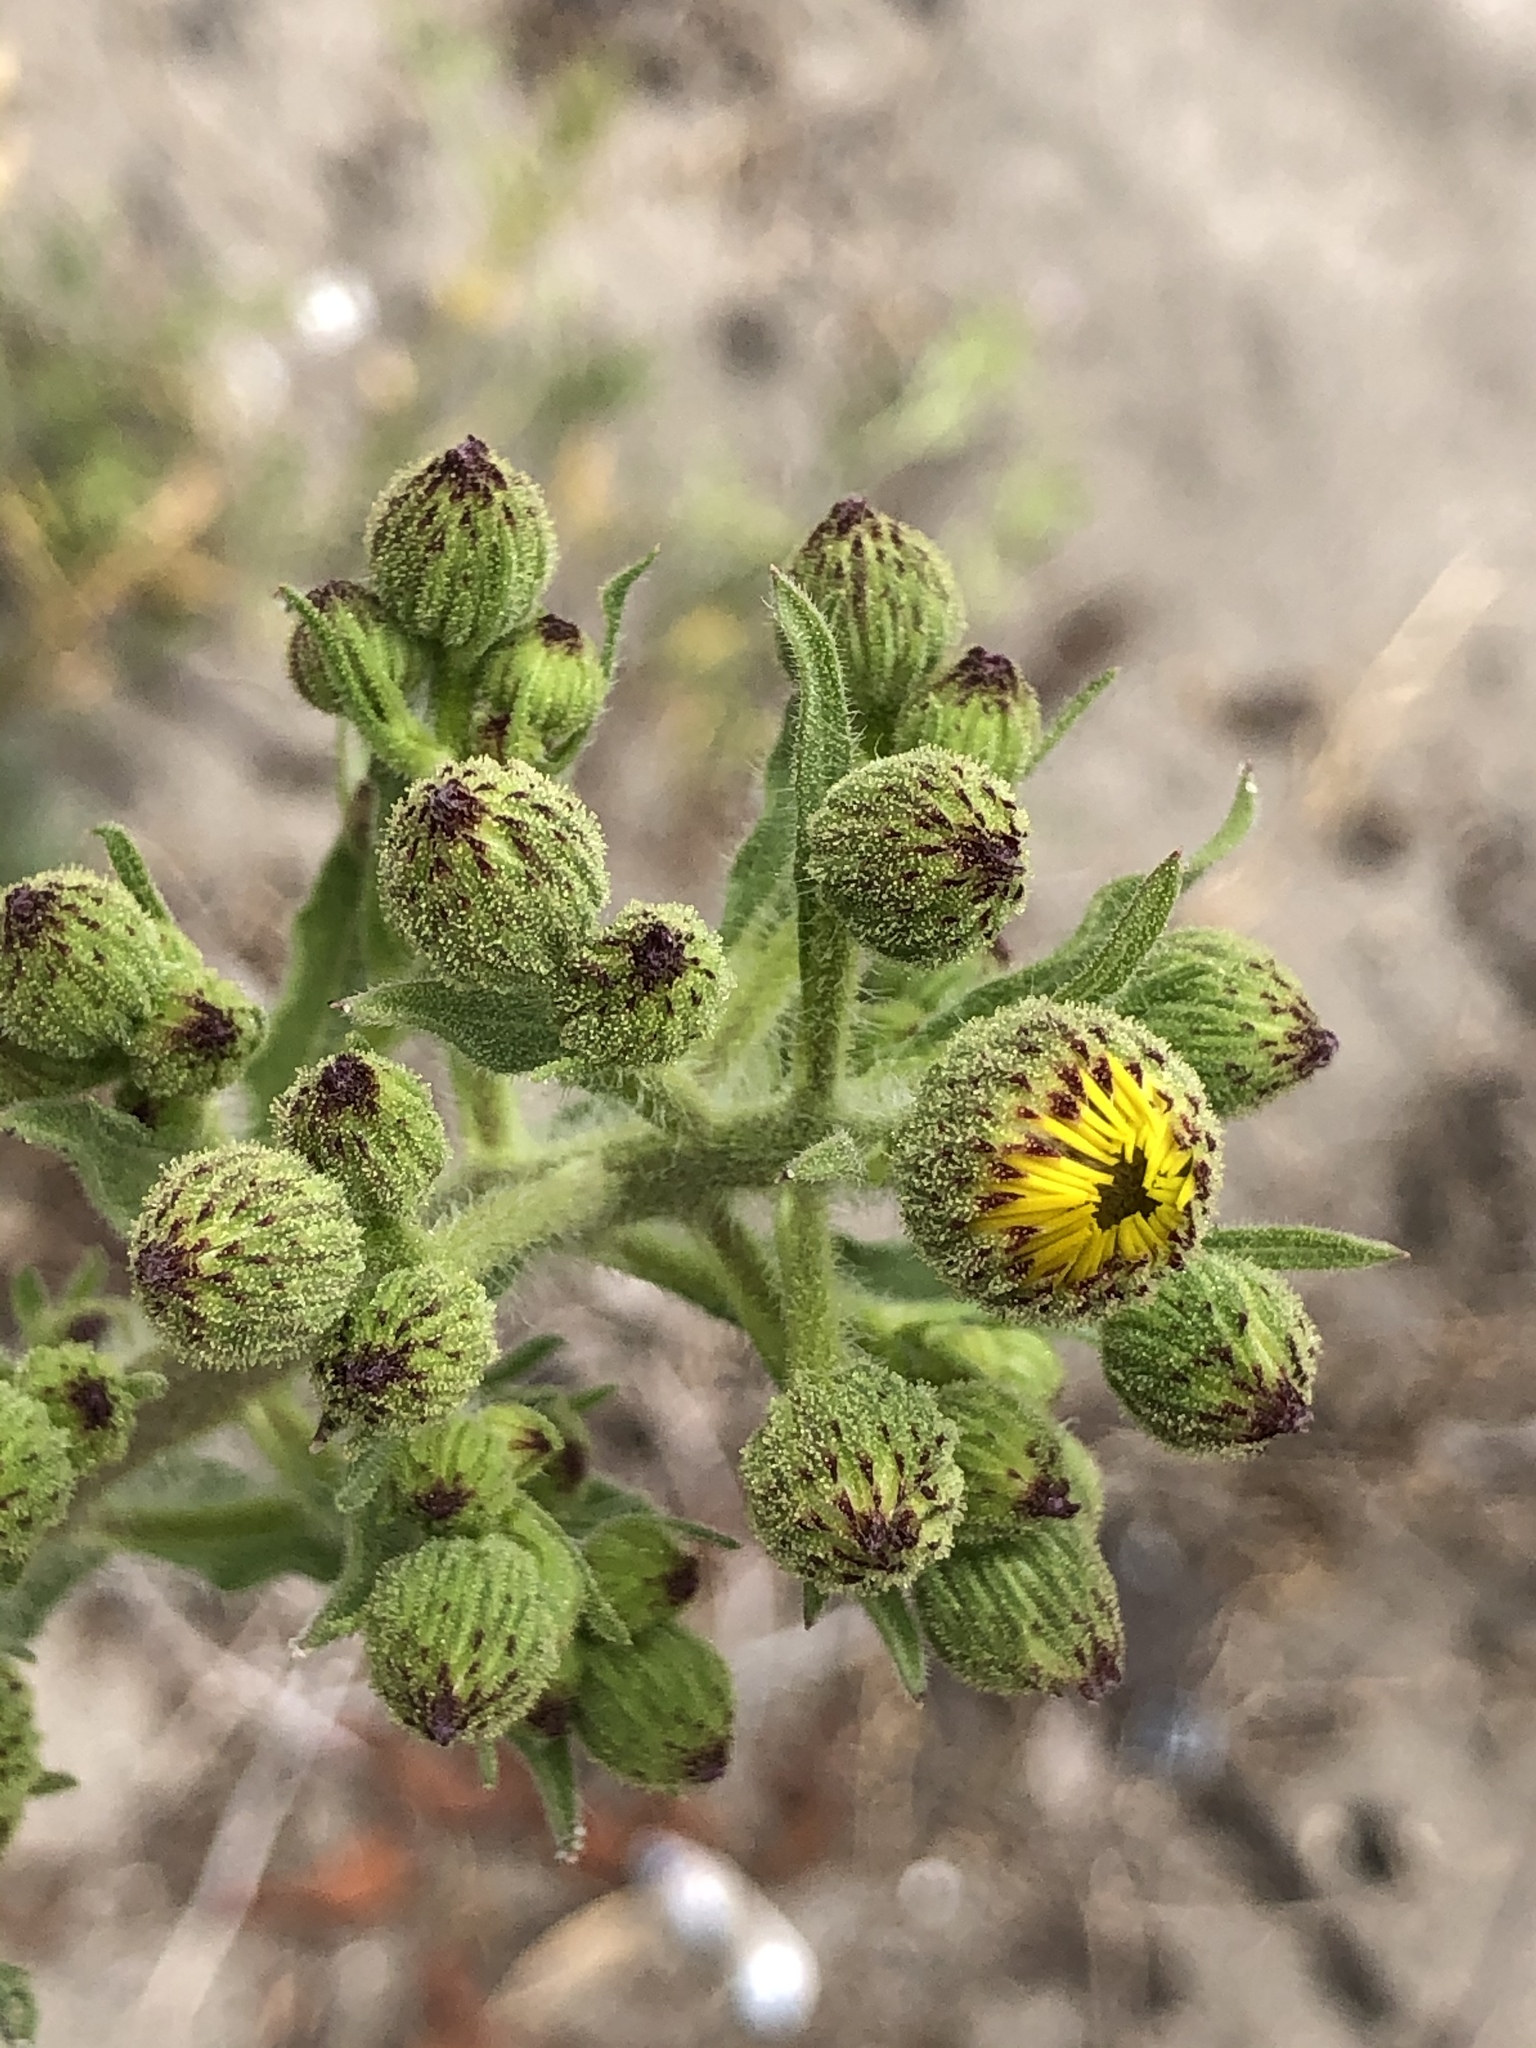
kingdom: Plantae
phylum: Tracheophyta
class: Magnoliopsida
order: Asterales
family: Asteraceae
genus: Heterotheca
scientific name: Heterotheca grandiflora
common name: Telegraphweed
